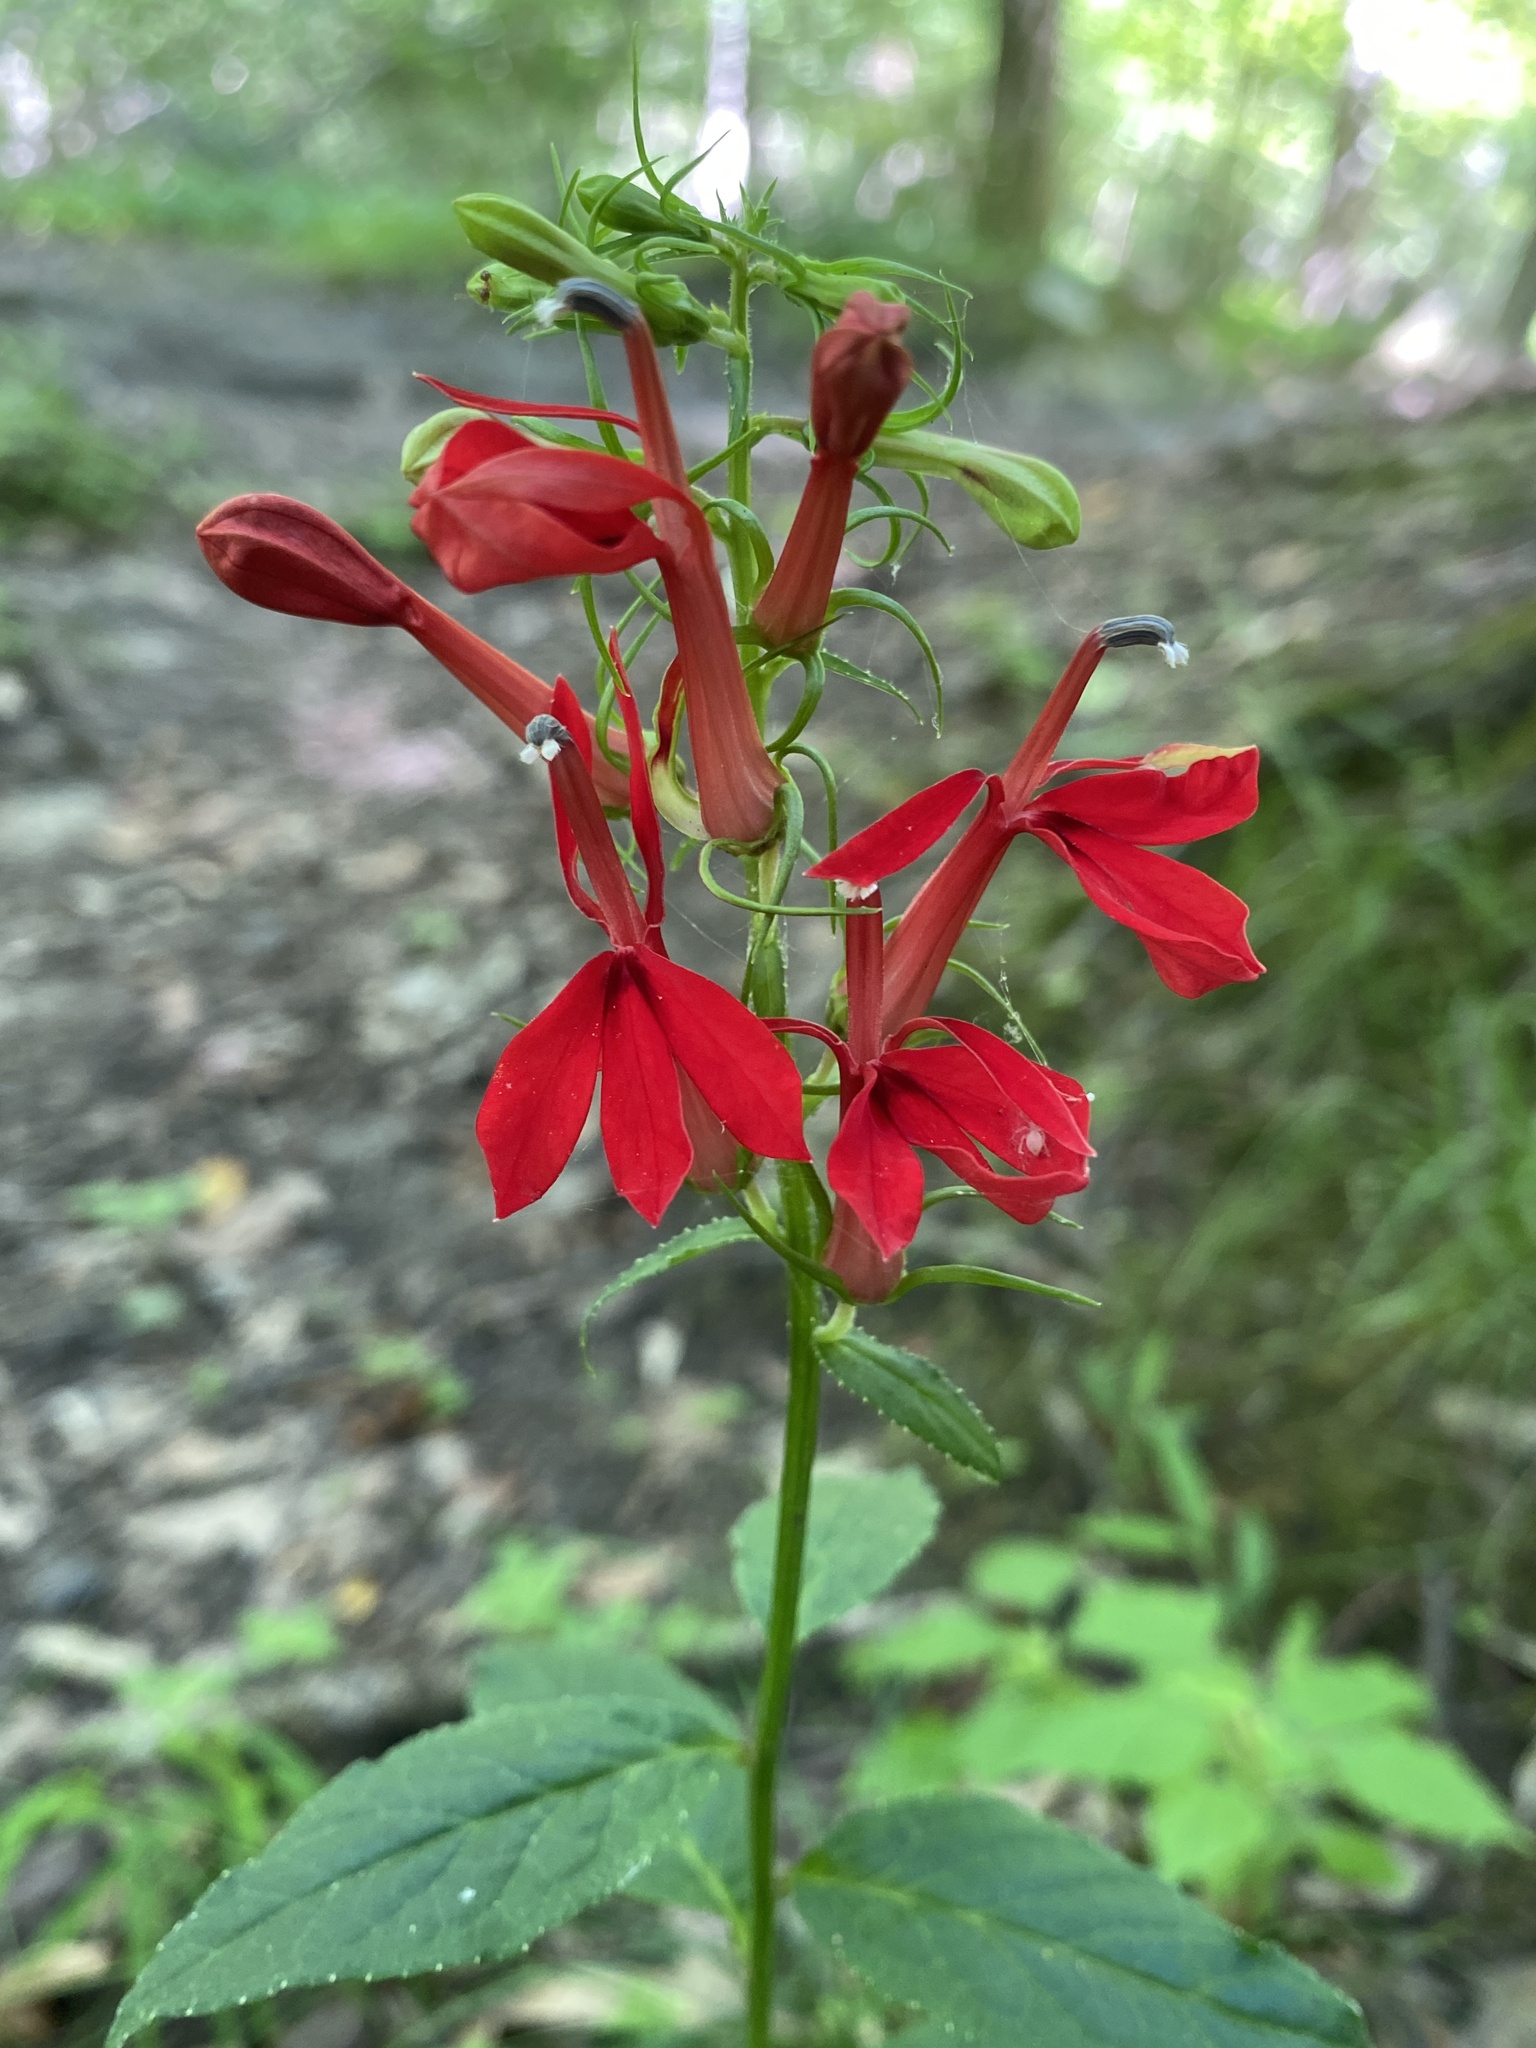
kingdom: Plantae
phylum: Tracheophyta
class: Magnoliopsida
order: Asterales
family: Campanulaceae
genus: Lobelia
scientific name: Lobelia cardinalis
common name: Cardinal flower
